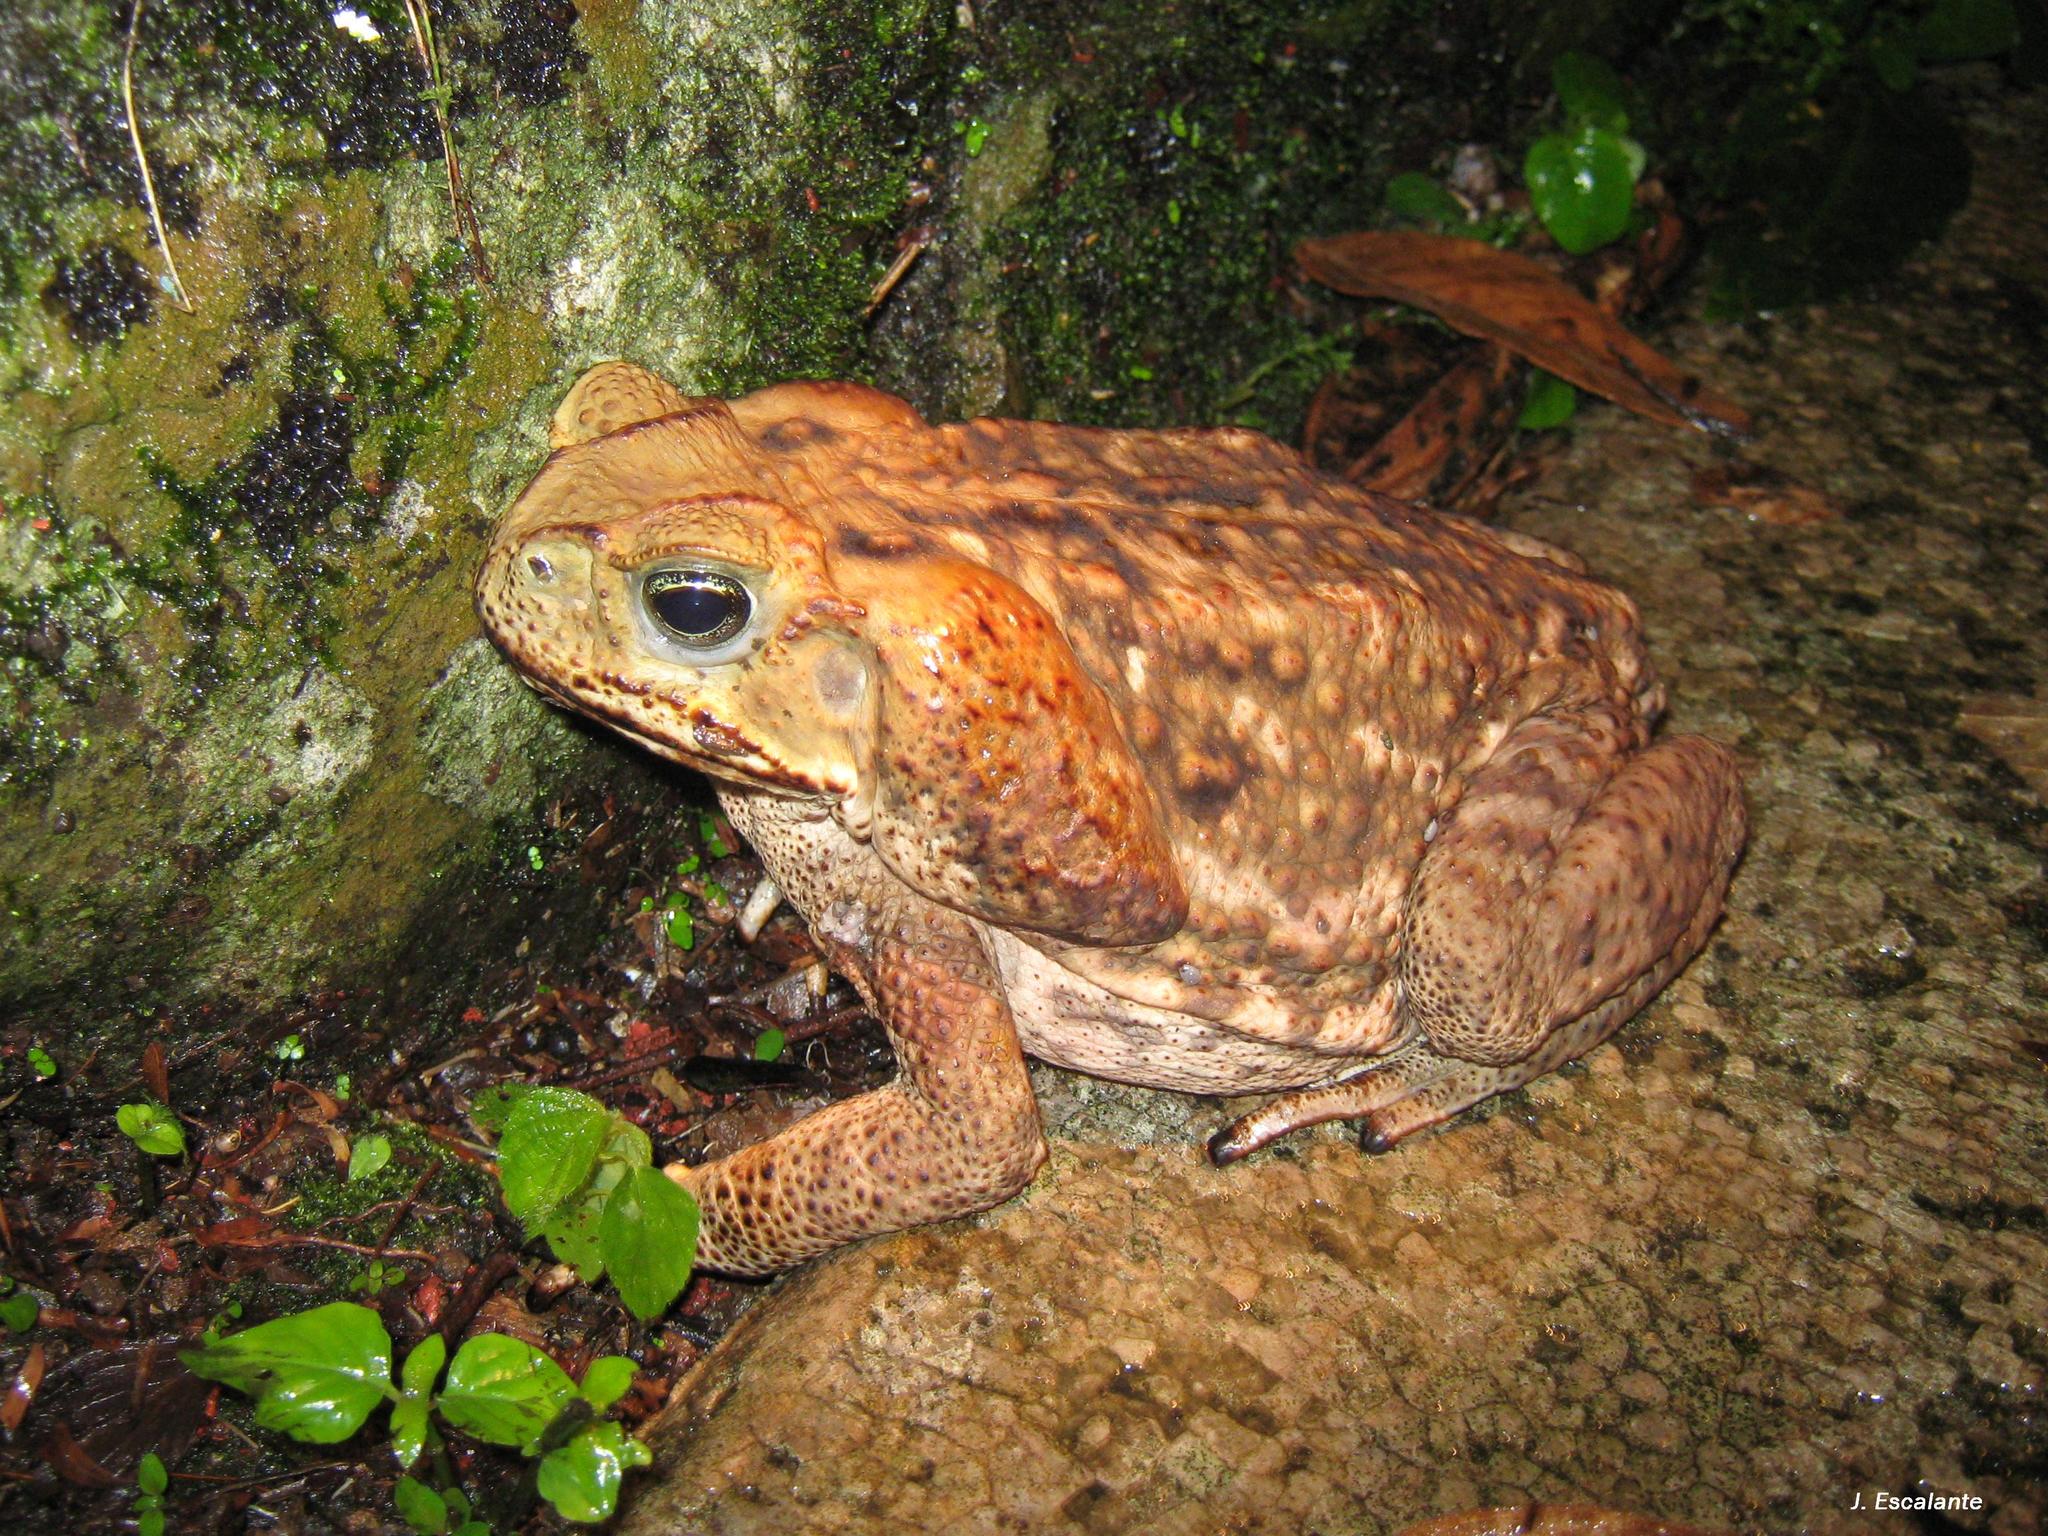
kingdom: Animalia
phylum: Chordata
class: Amphibia
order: Anura
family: Bufonidae
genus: Rhinella
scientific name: Rhinella horribilis
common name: Mesoamerican cane toad
